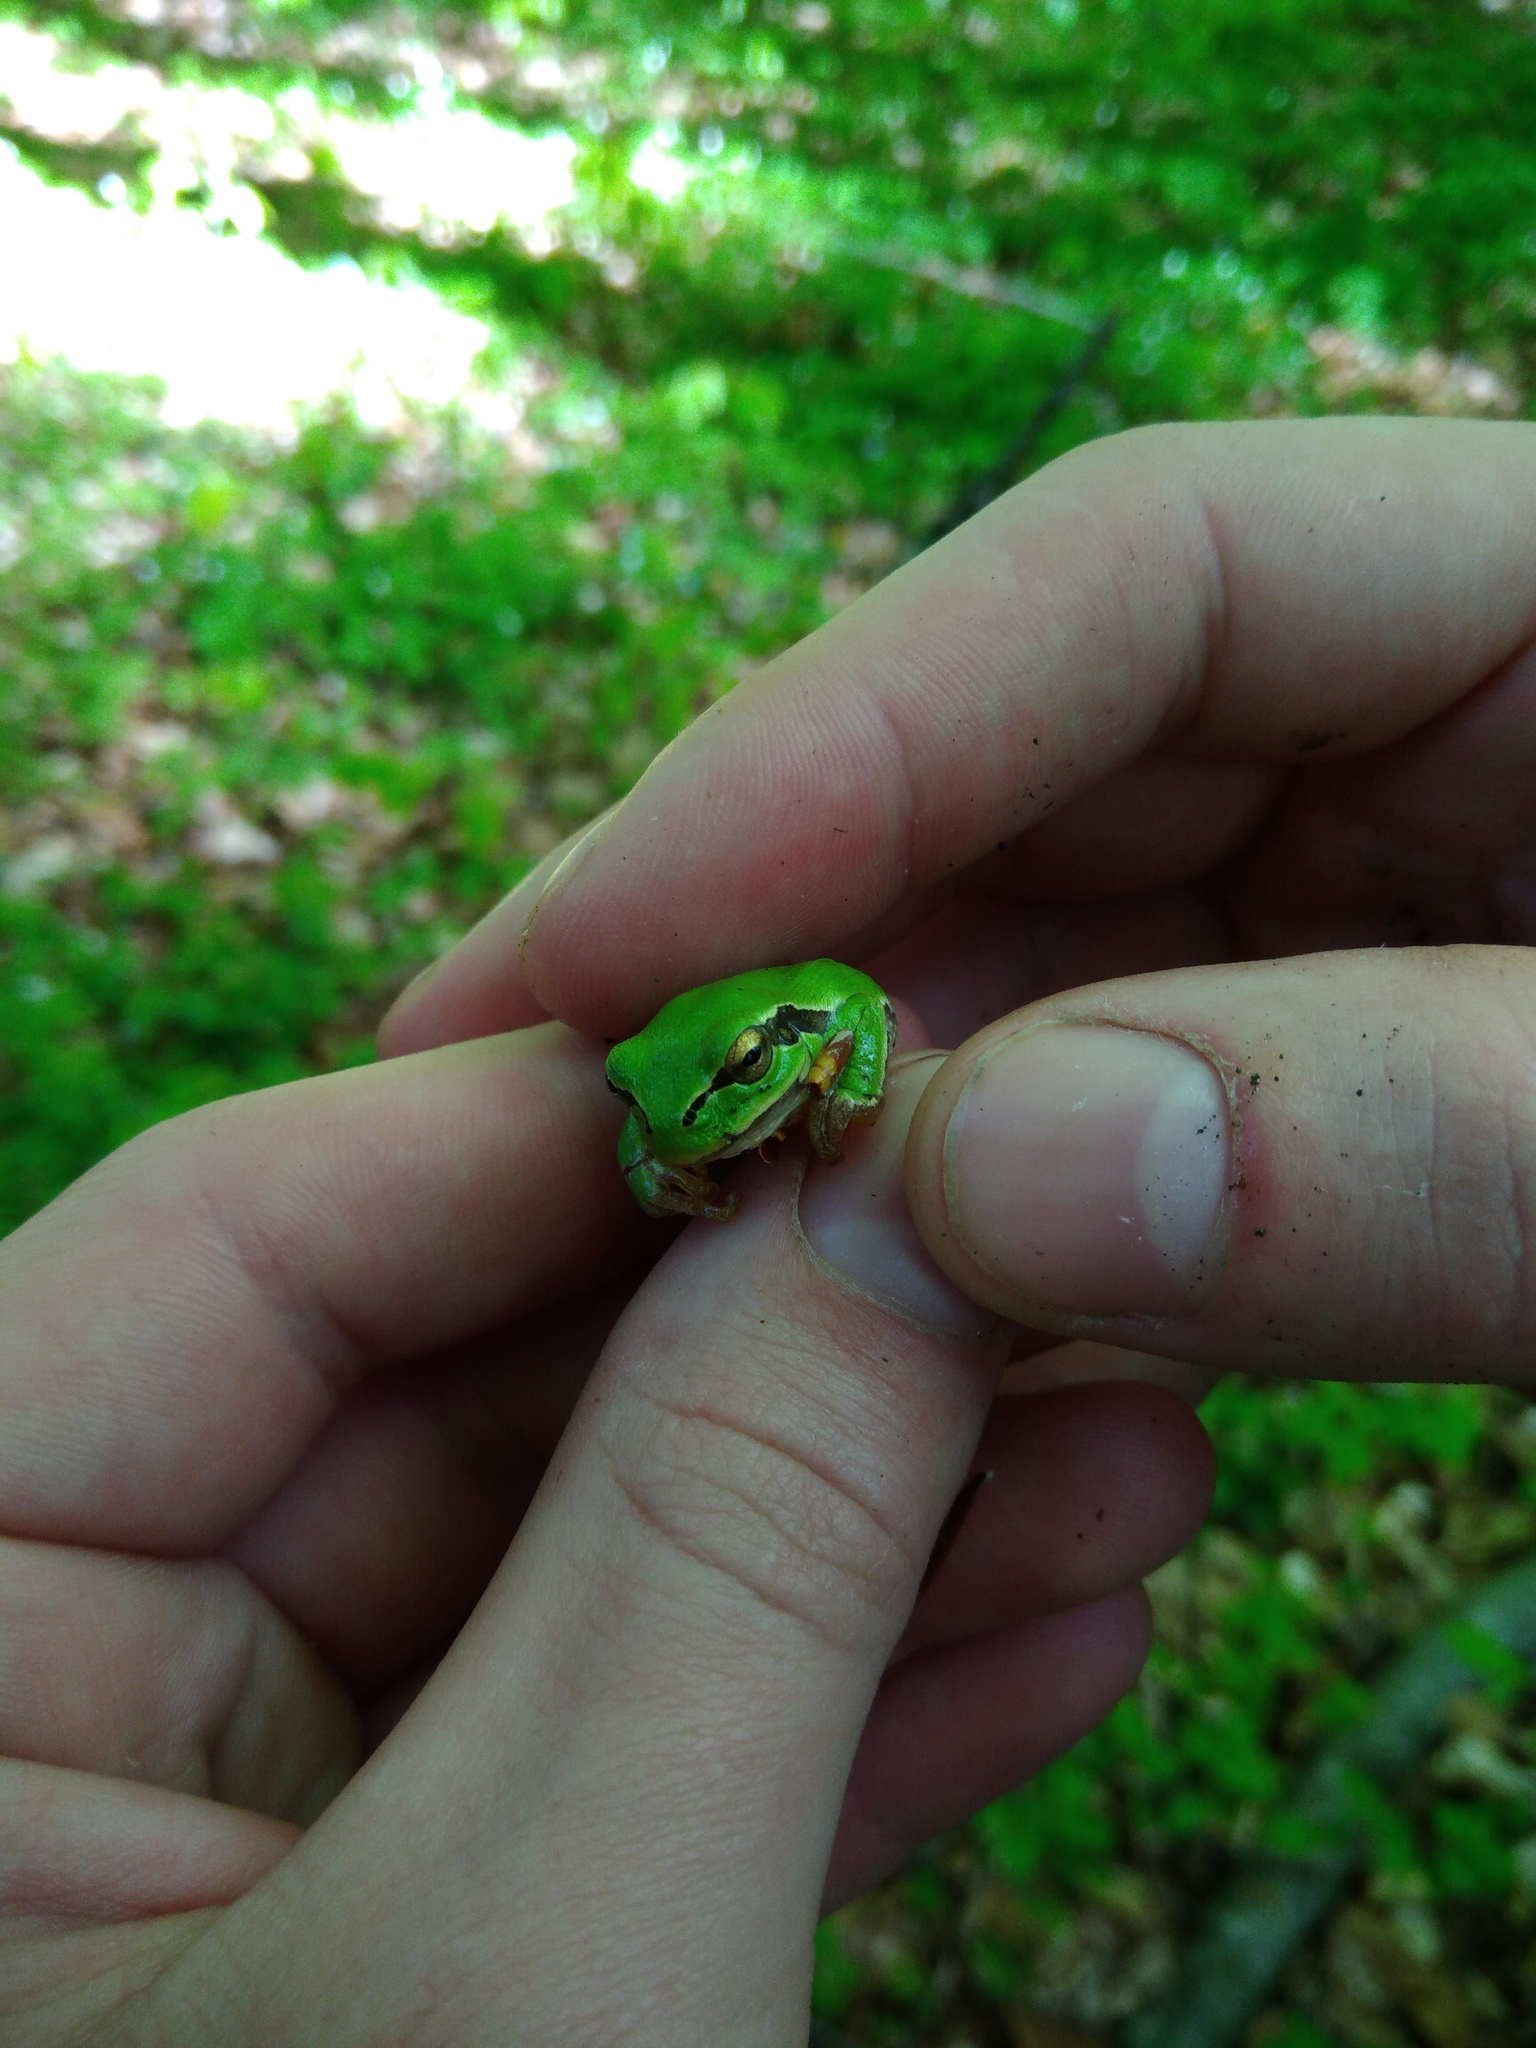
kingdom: Animalia
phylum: Chordata
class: Amphibia
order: Anura
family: Hylidae
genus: Hyla
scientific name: Hyla orientalis
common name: Caucasian treefrog
